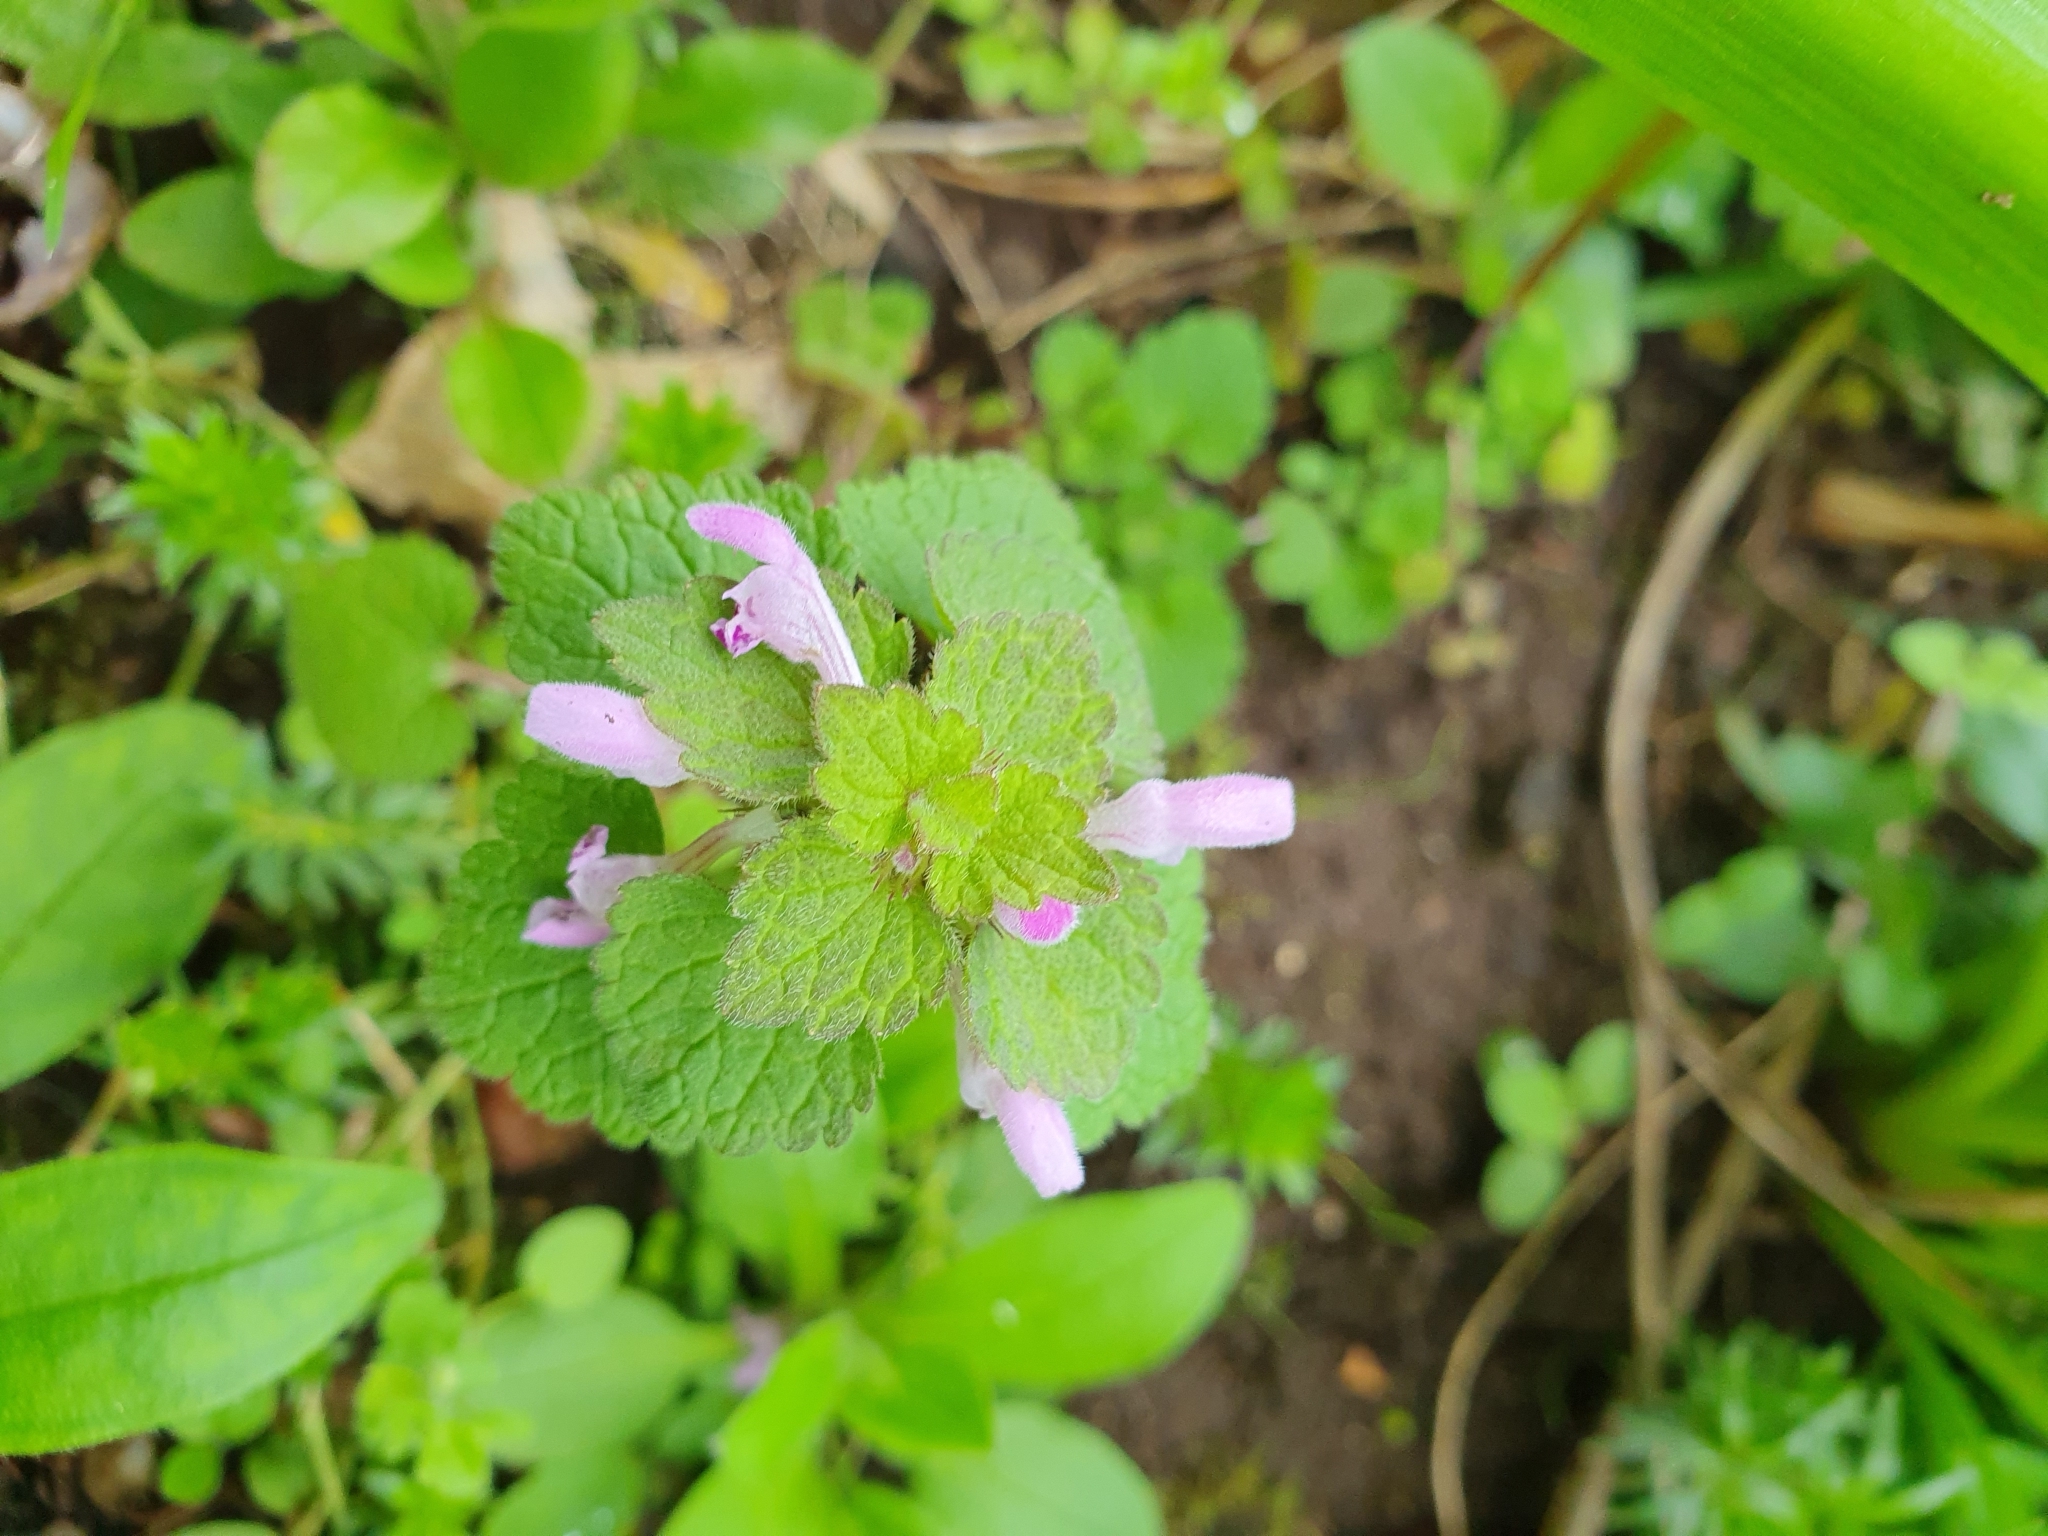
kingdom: Plantae
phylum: Tracheophyta
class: Magnoliopsida
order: Lamiales
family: Lamiaceae
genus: Lamium
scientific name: Lamium purpureum
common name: Red dead-nettle
